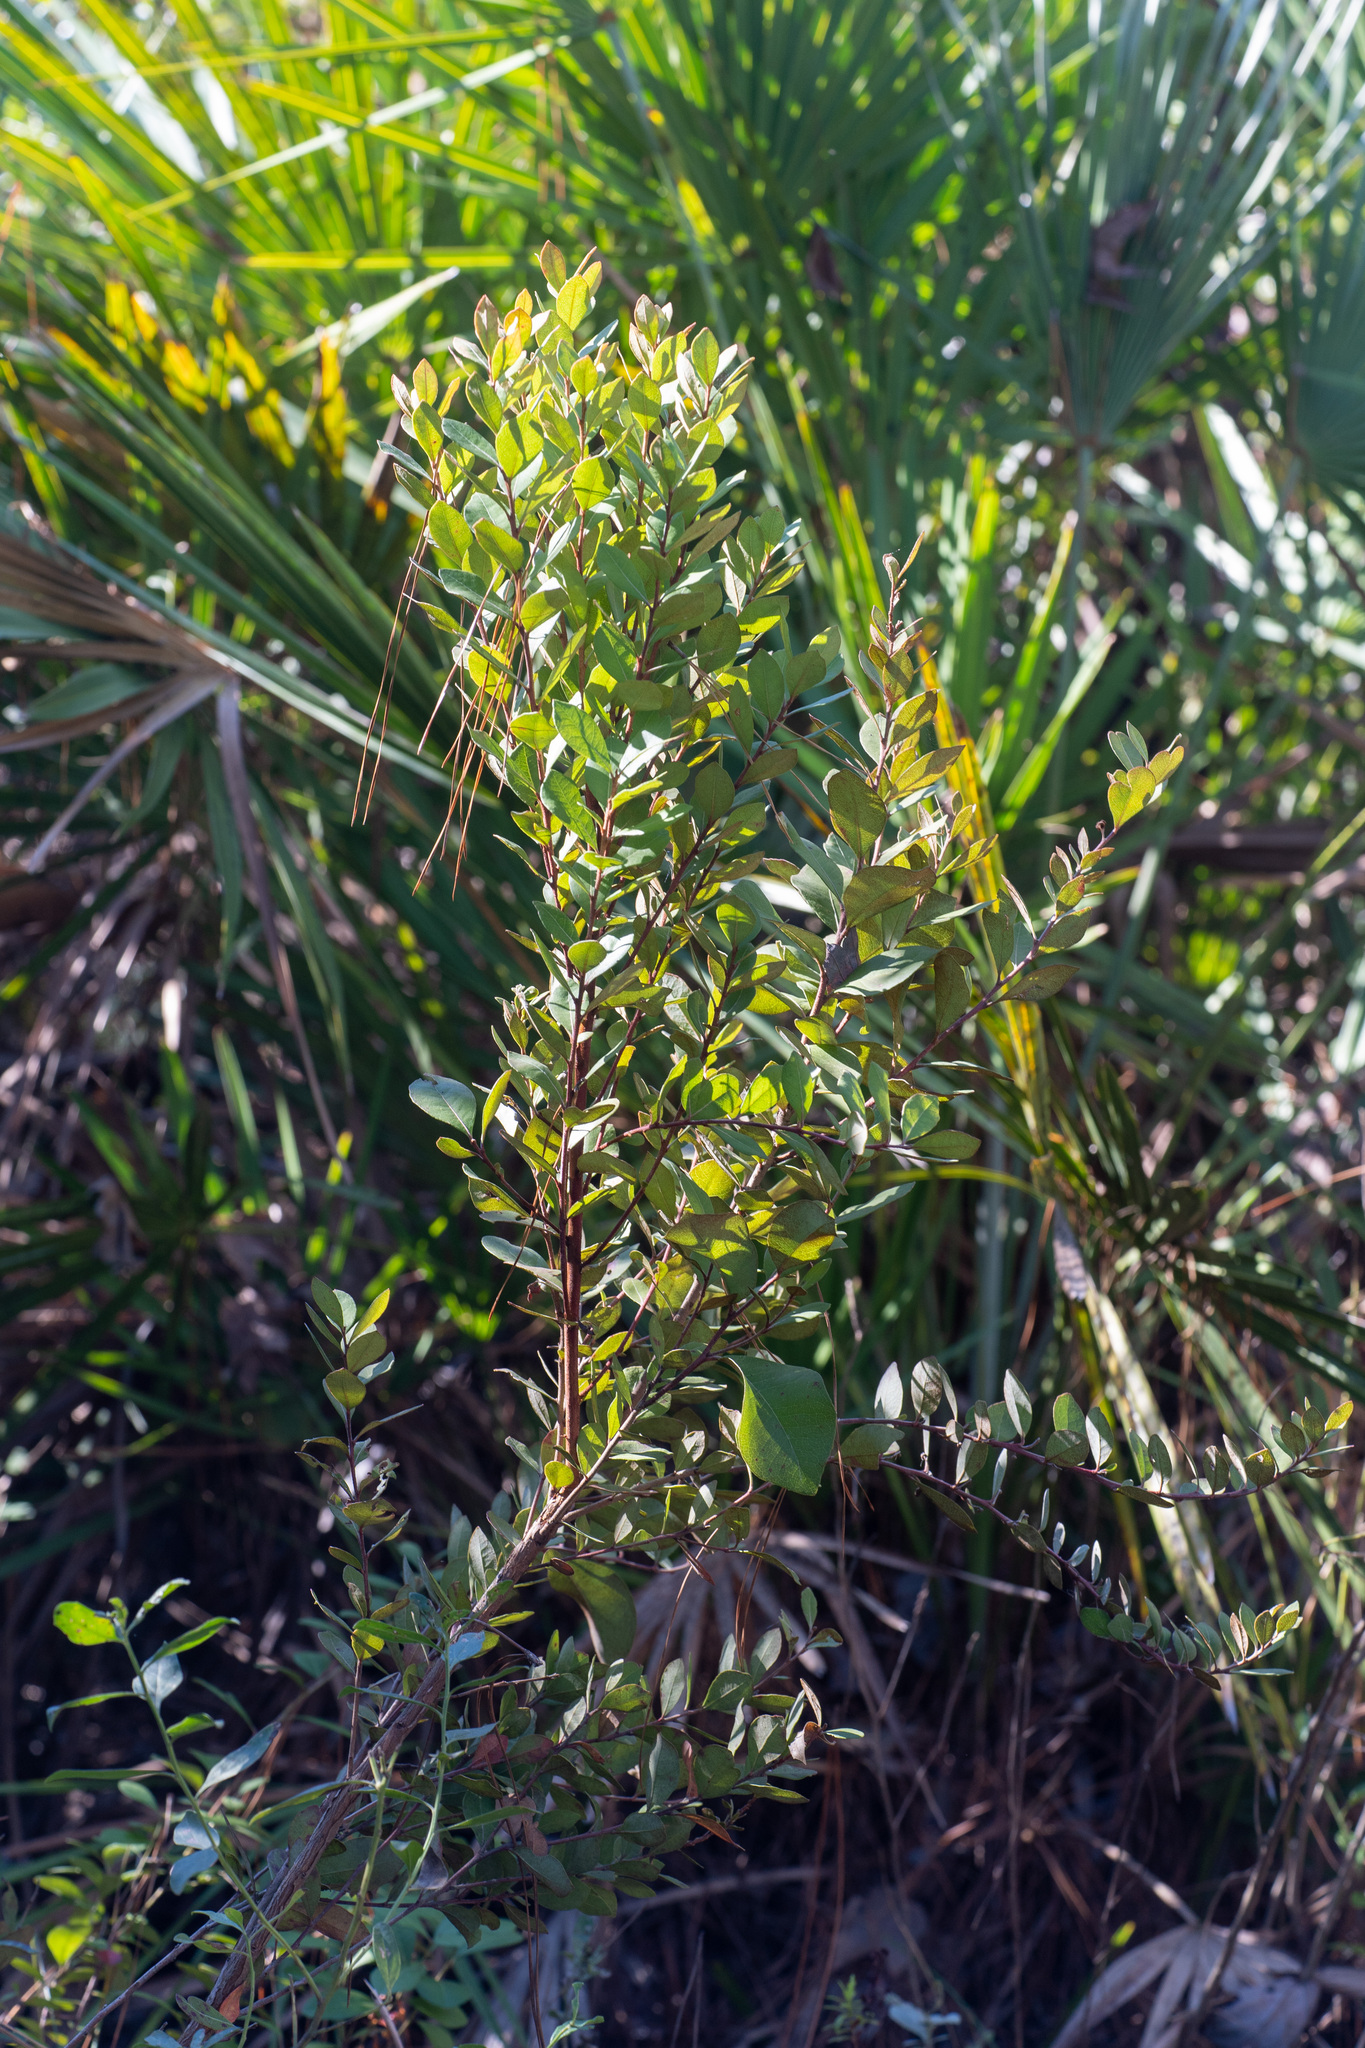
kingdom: Plantae
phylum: Tracheophyta
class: Magnoliopsida
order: Ericales
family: Ericaceae
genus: Lyonia
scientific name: Lyonia fruticosa
